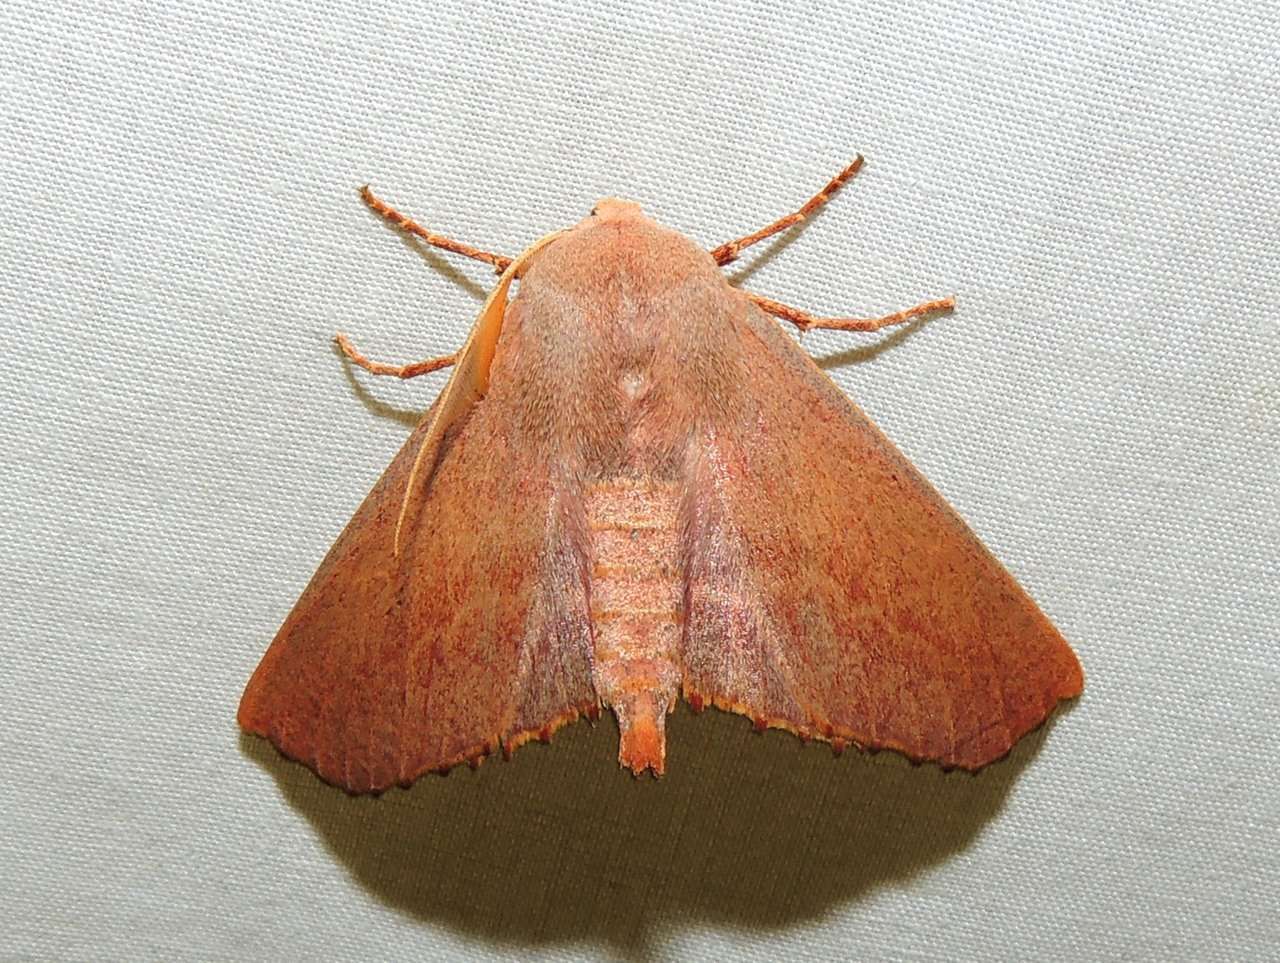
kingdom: Animalia
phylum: Arthropoda
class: Insecta
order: Lepidoptera
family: Geometridae
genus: Monoctenia
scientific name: Monoctenia smerintharia
